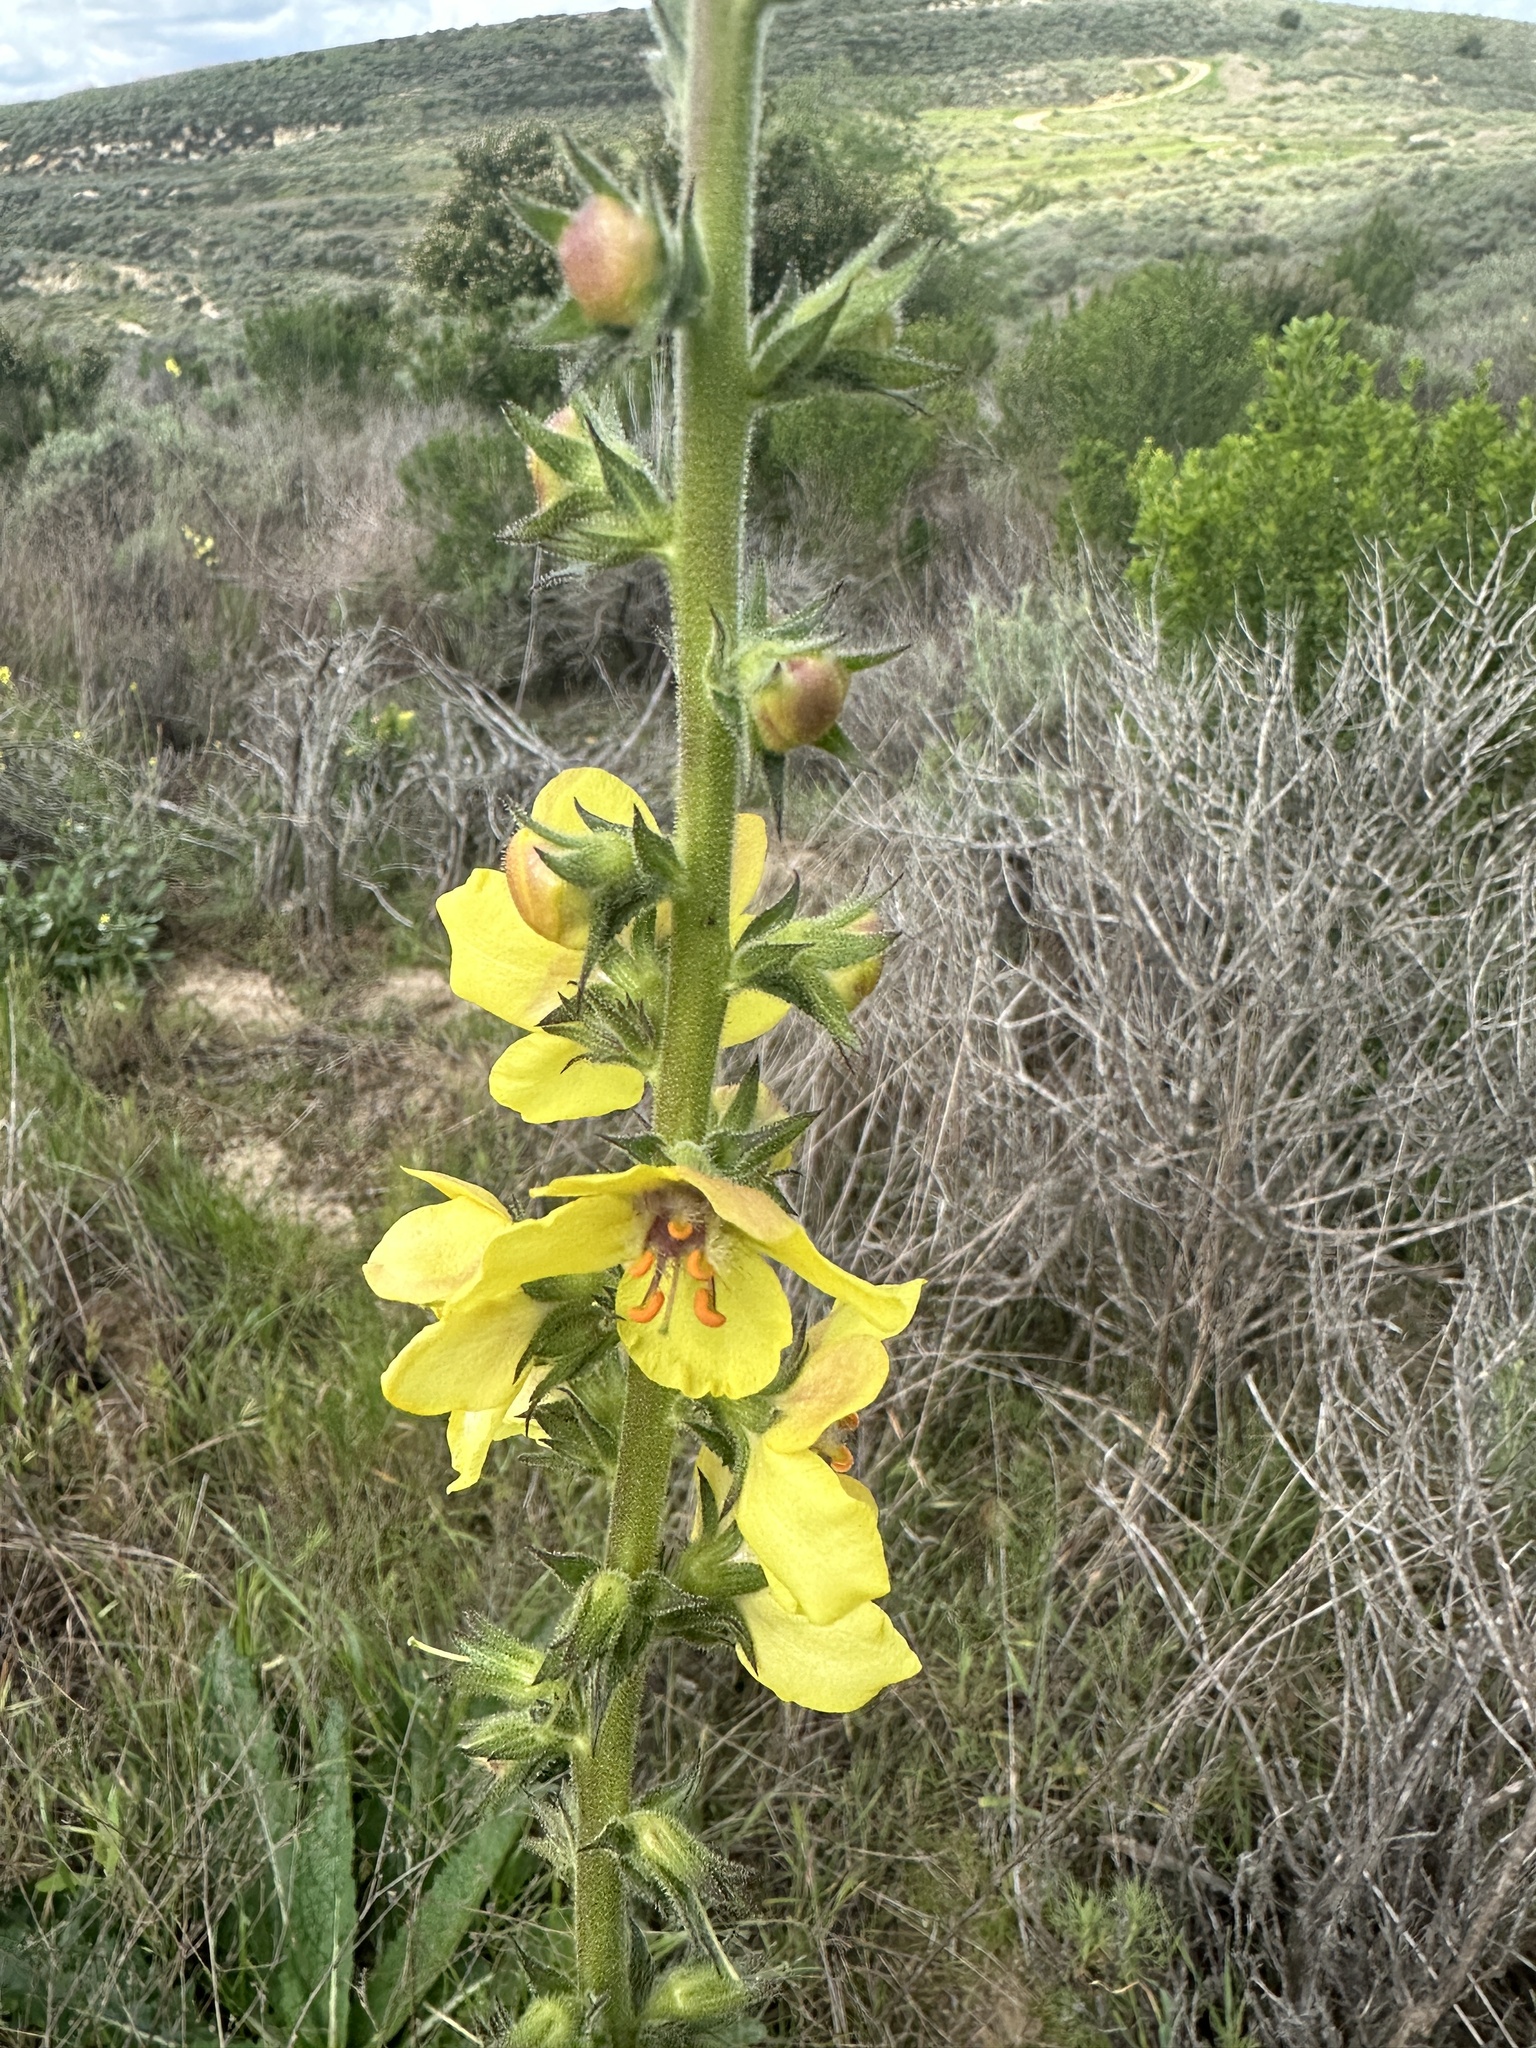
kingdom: Plantae
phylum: Tracheophyta
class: Magnoliopsida
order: Lamiales
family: Scrophulariaceae
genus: Verbascum
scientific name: Verbascum virgatum
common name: Twiggy mullein
